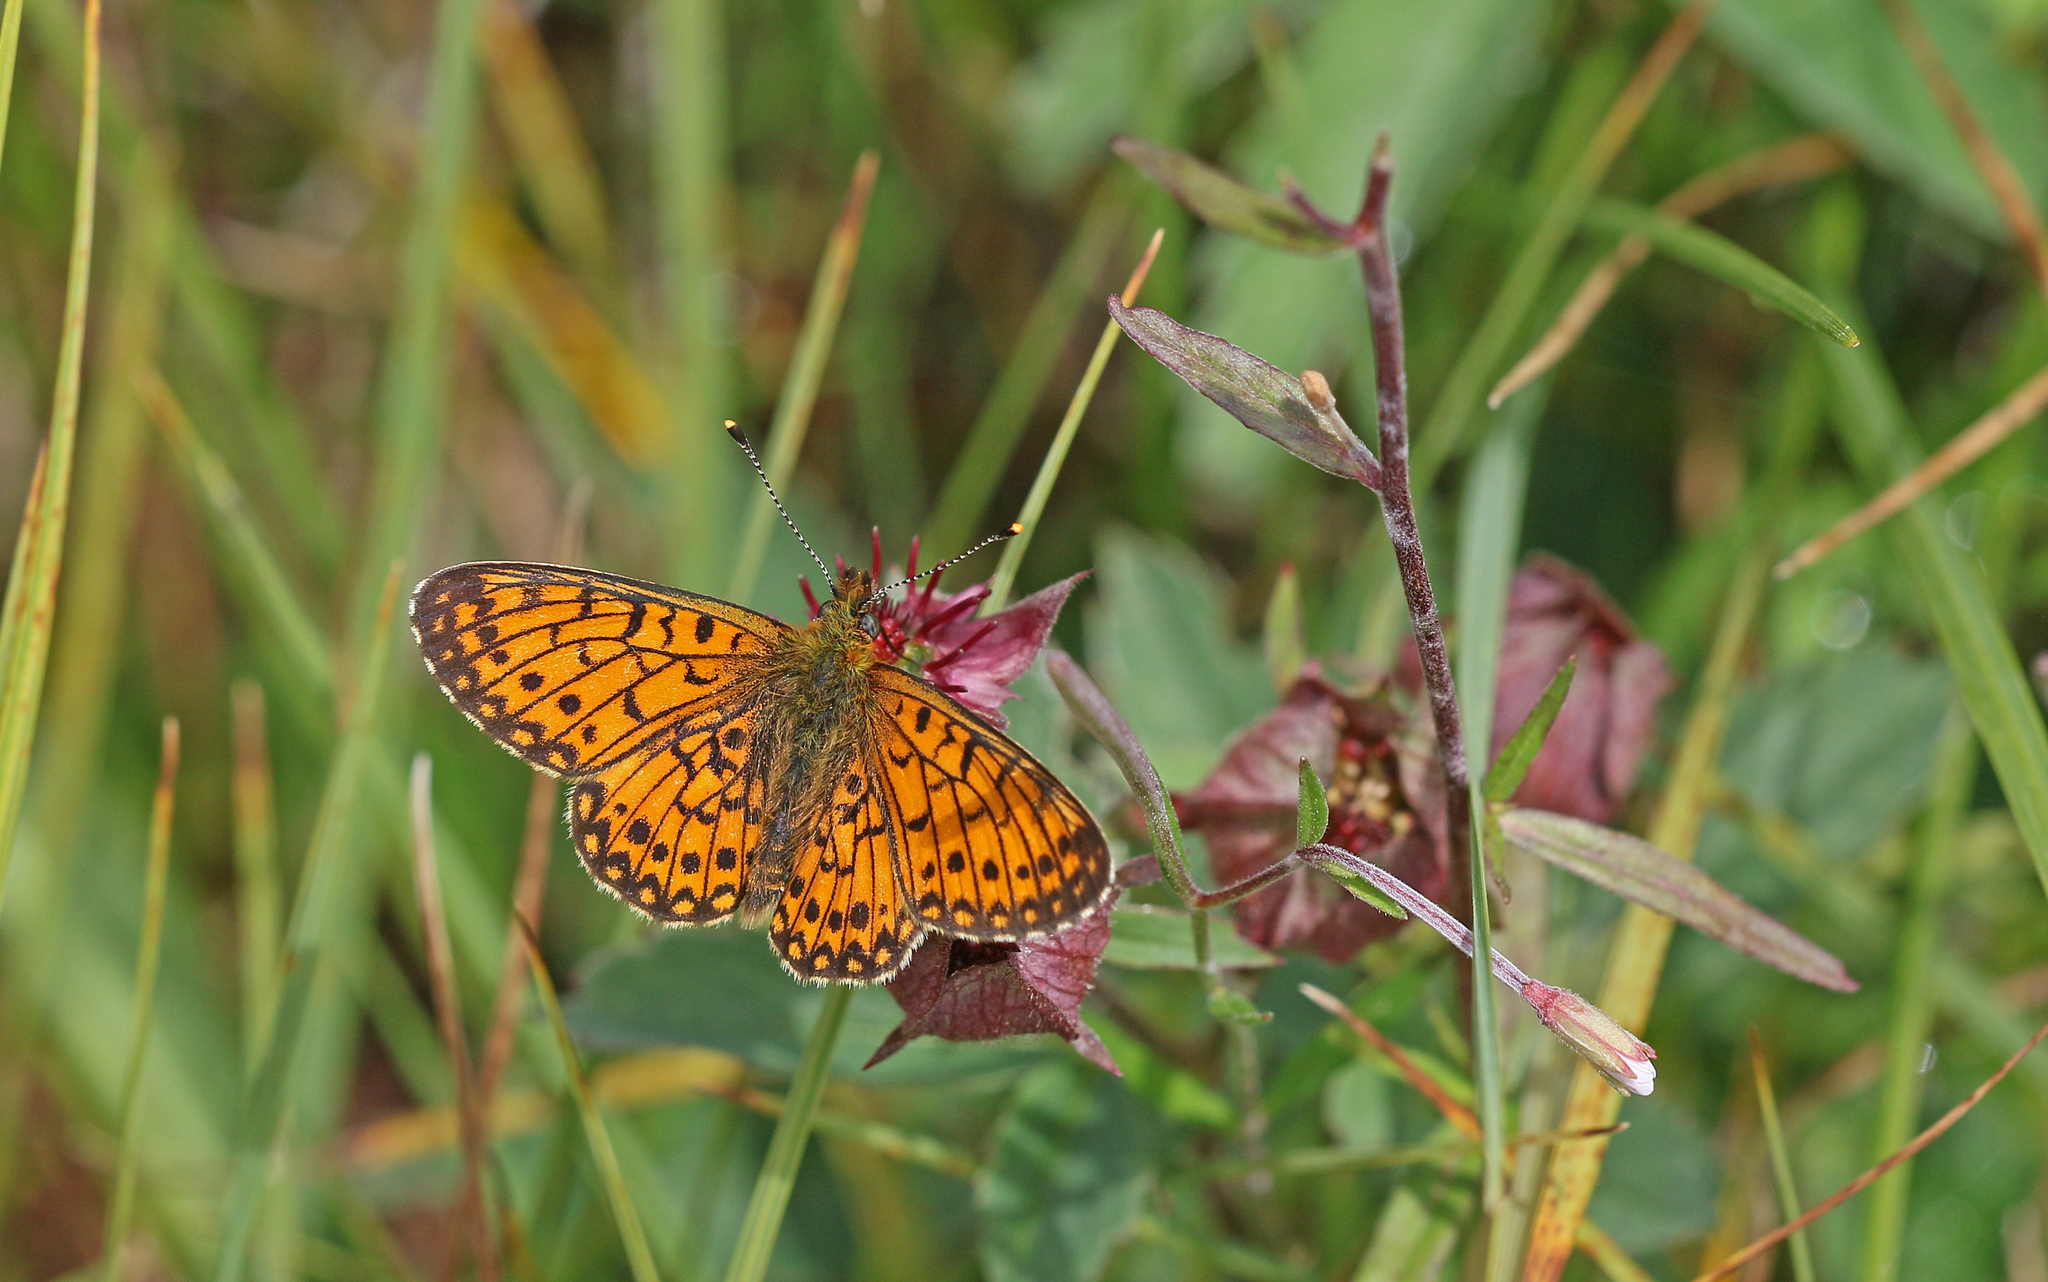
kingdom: Animalia
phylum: Arthropoda
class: Insecta
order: Lepidoptera
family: Nymphalidae
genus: Boloria
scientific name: Boloria selene
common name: Small pearl-bordered fritillary
